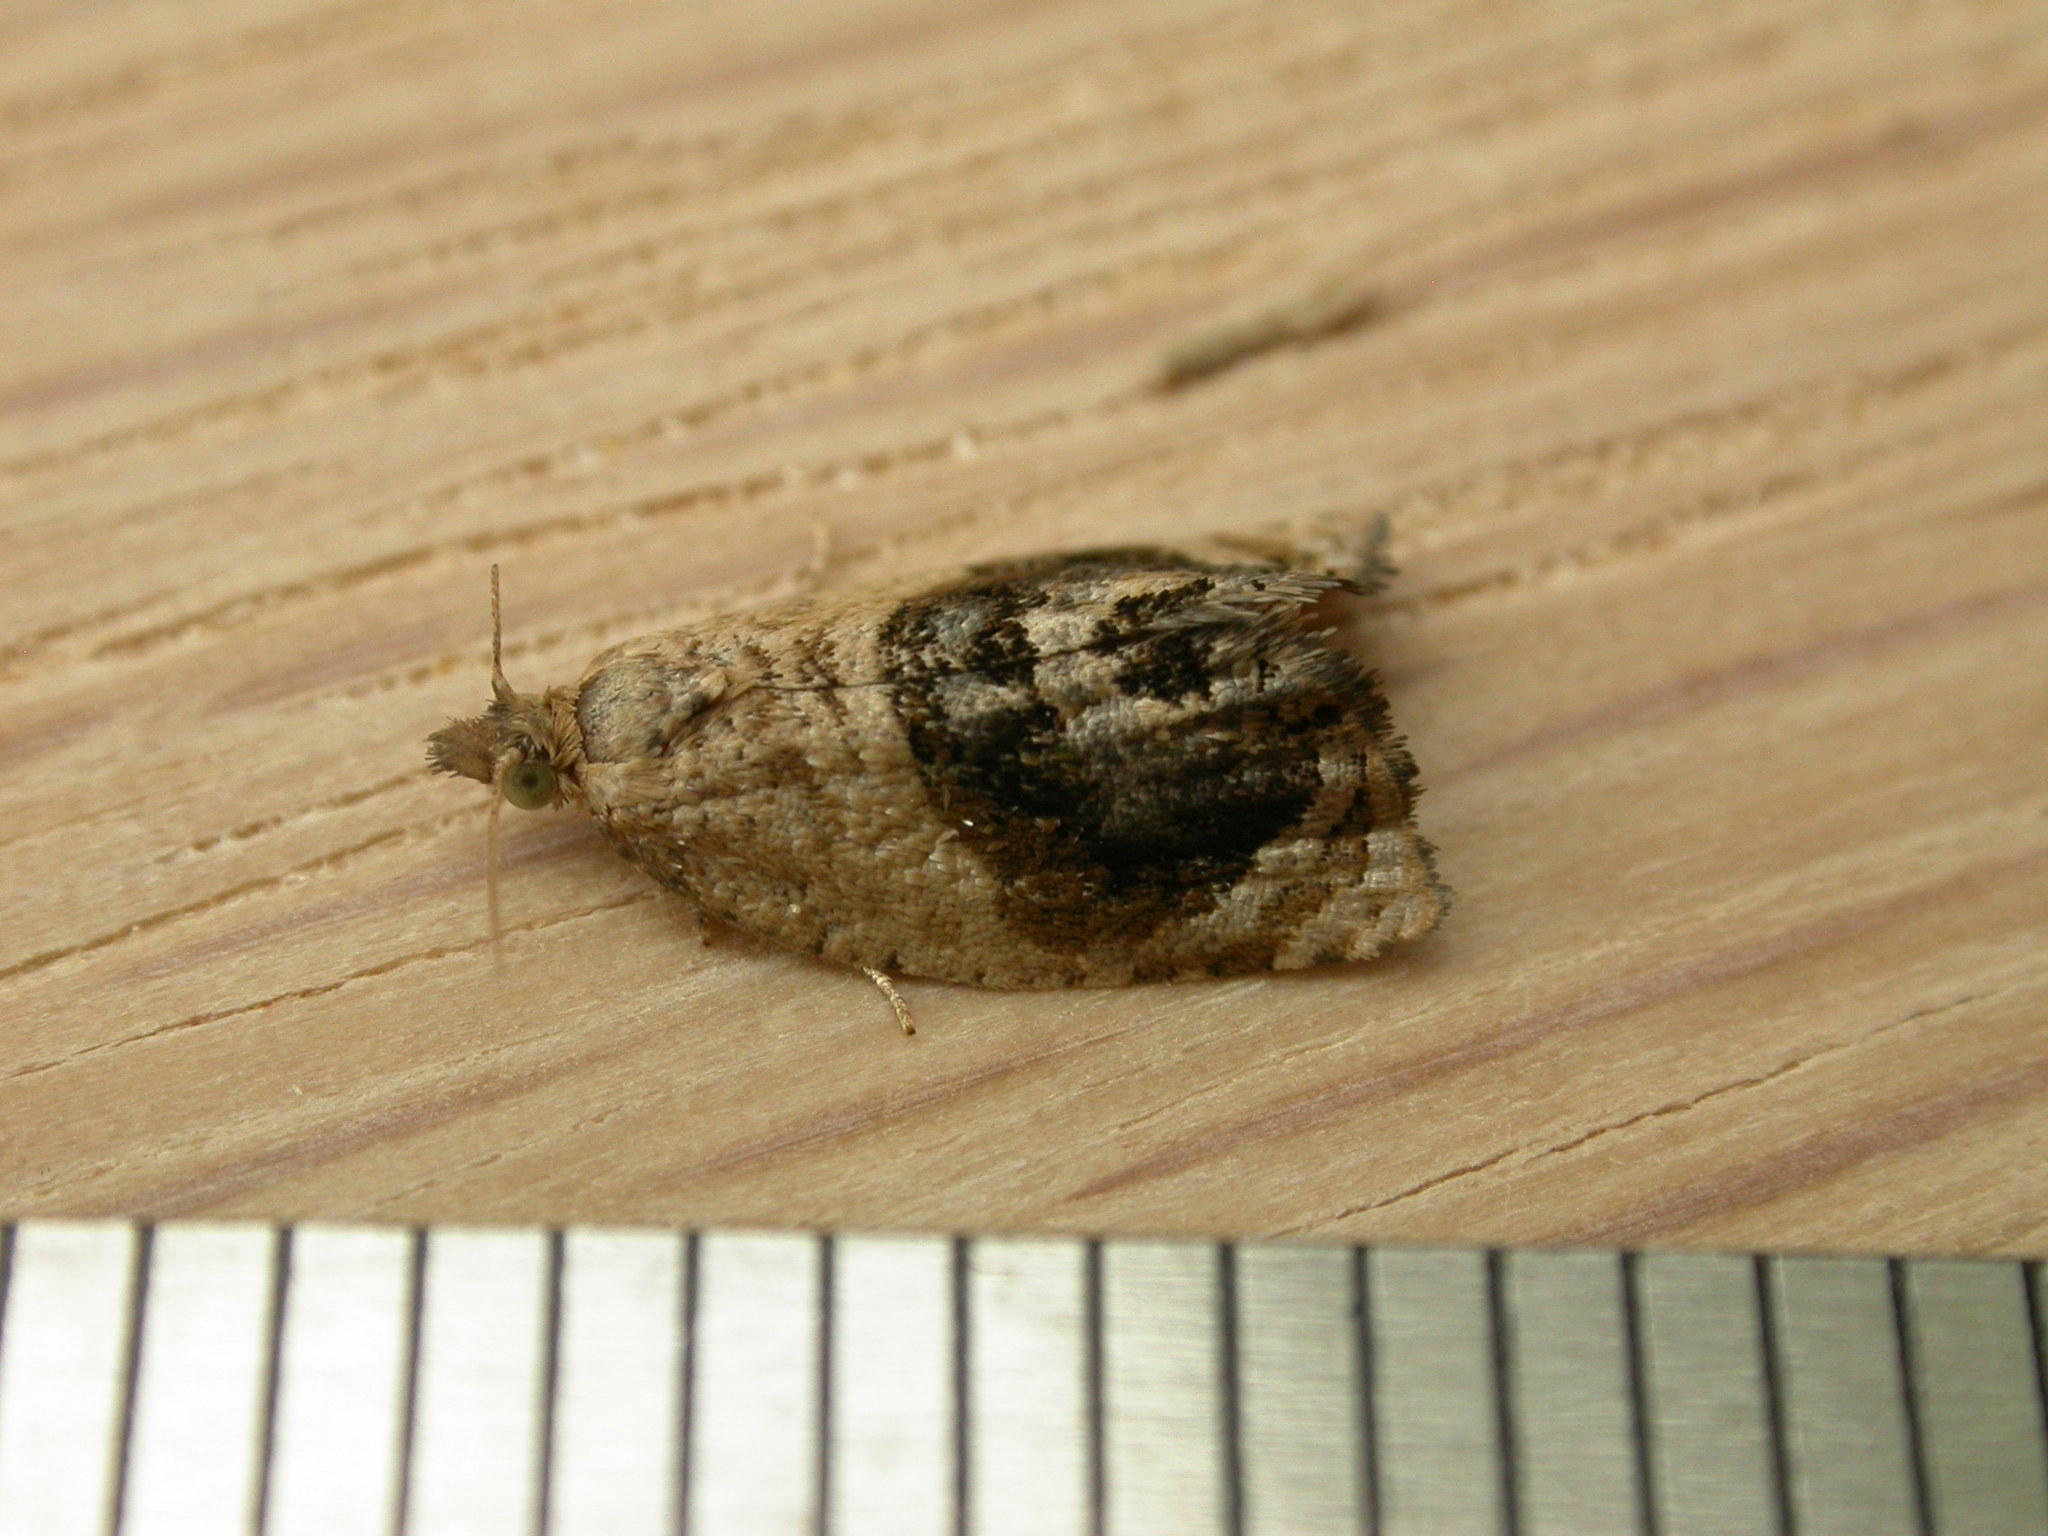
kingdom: Animalia
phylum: Arthropoda
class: Insecta
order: Lepidoptera
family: Tortricidae
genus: Acroceuthes
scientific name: Acroceuthes metaxanthana
